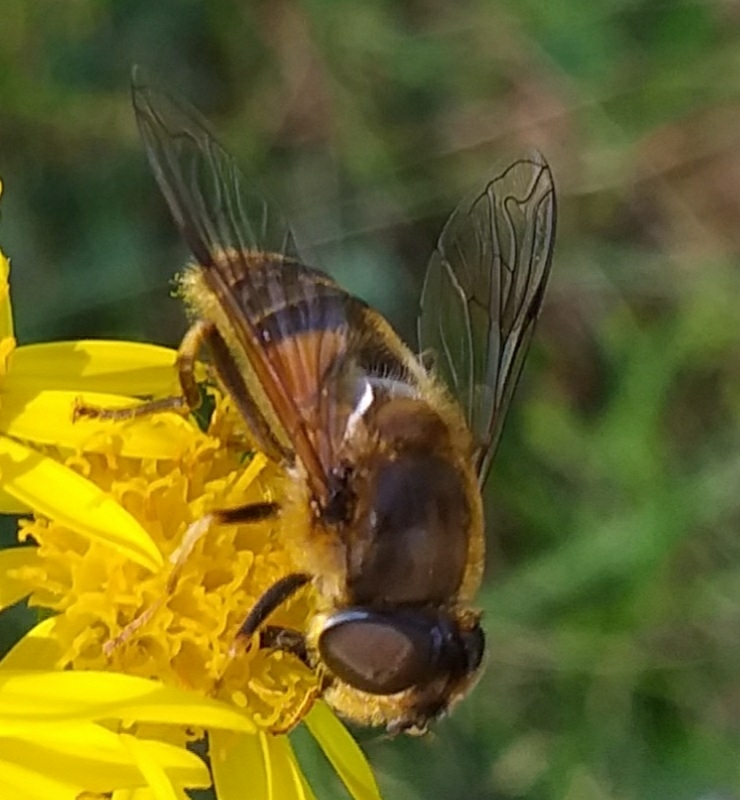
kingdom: Animalia
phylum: Arthropoda
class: Insecta
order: Diptera
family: Syrphidae
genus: Eristalis
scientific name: Eristalis pertinax
